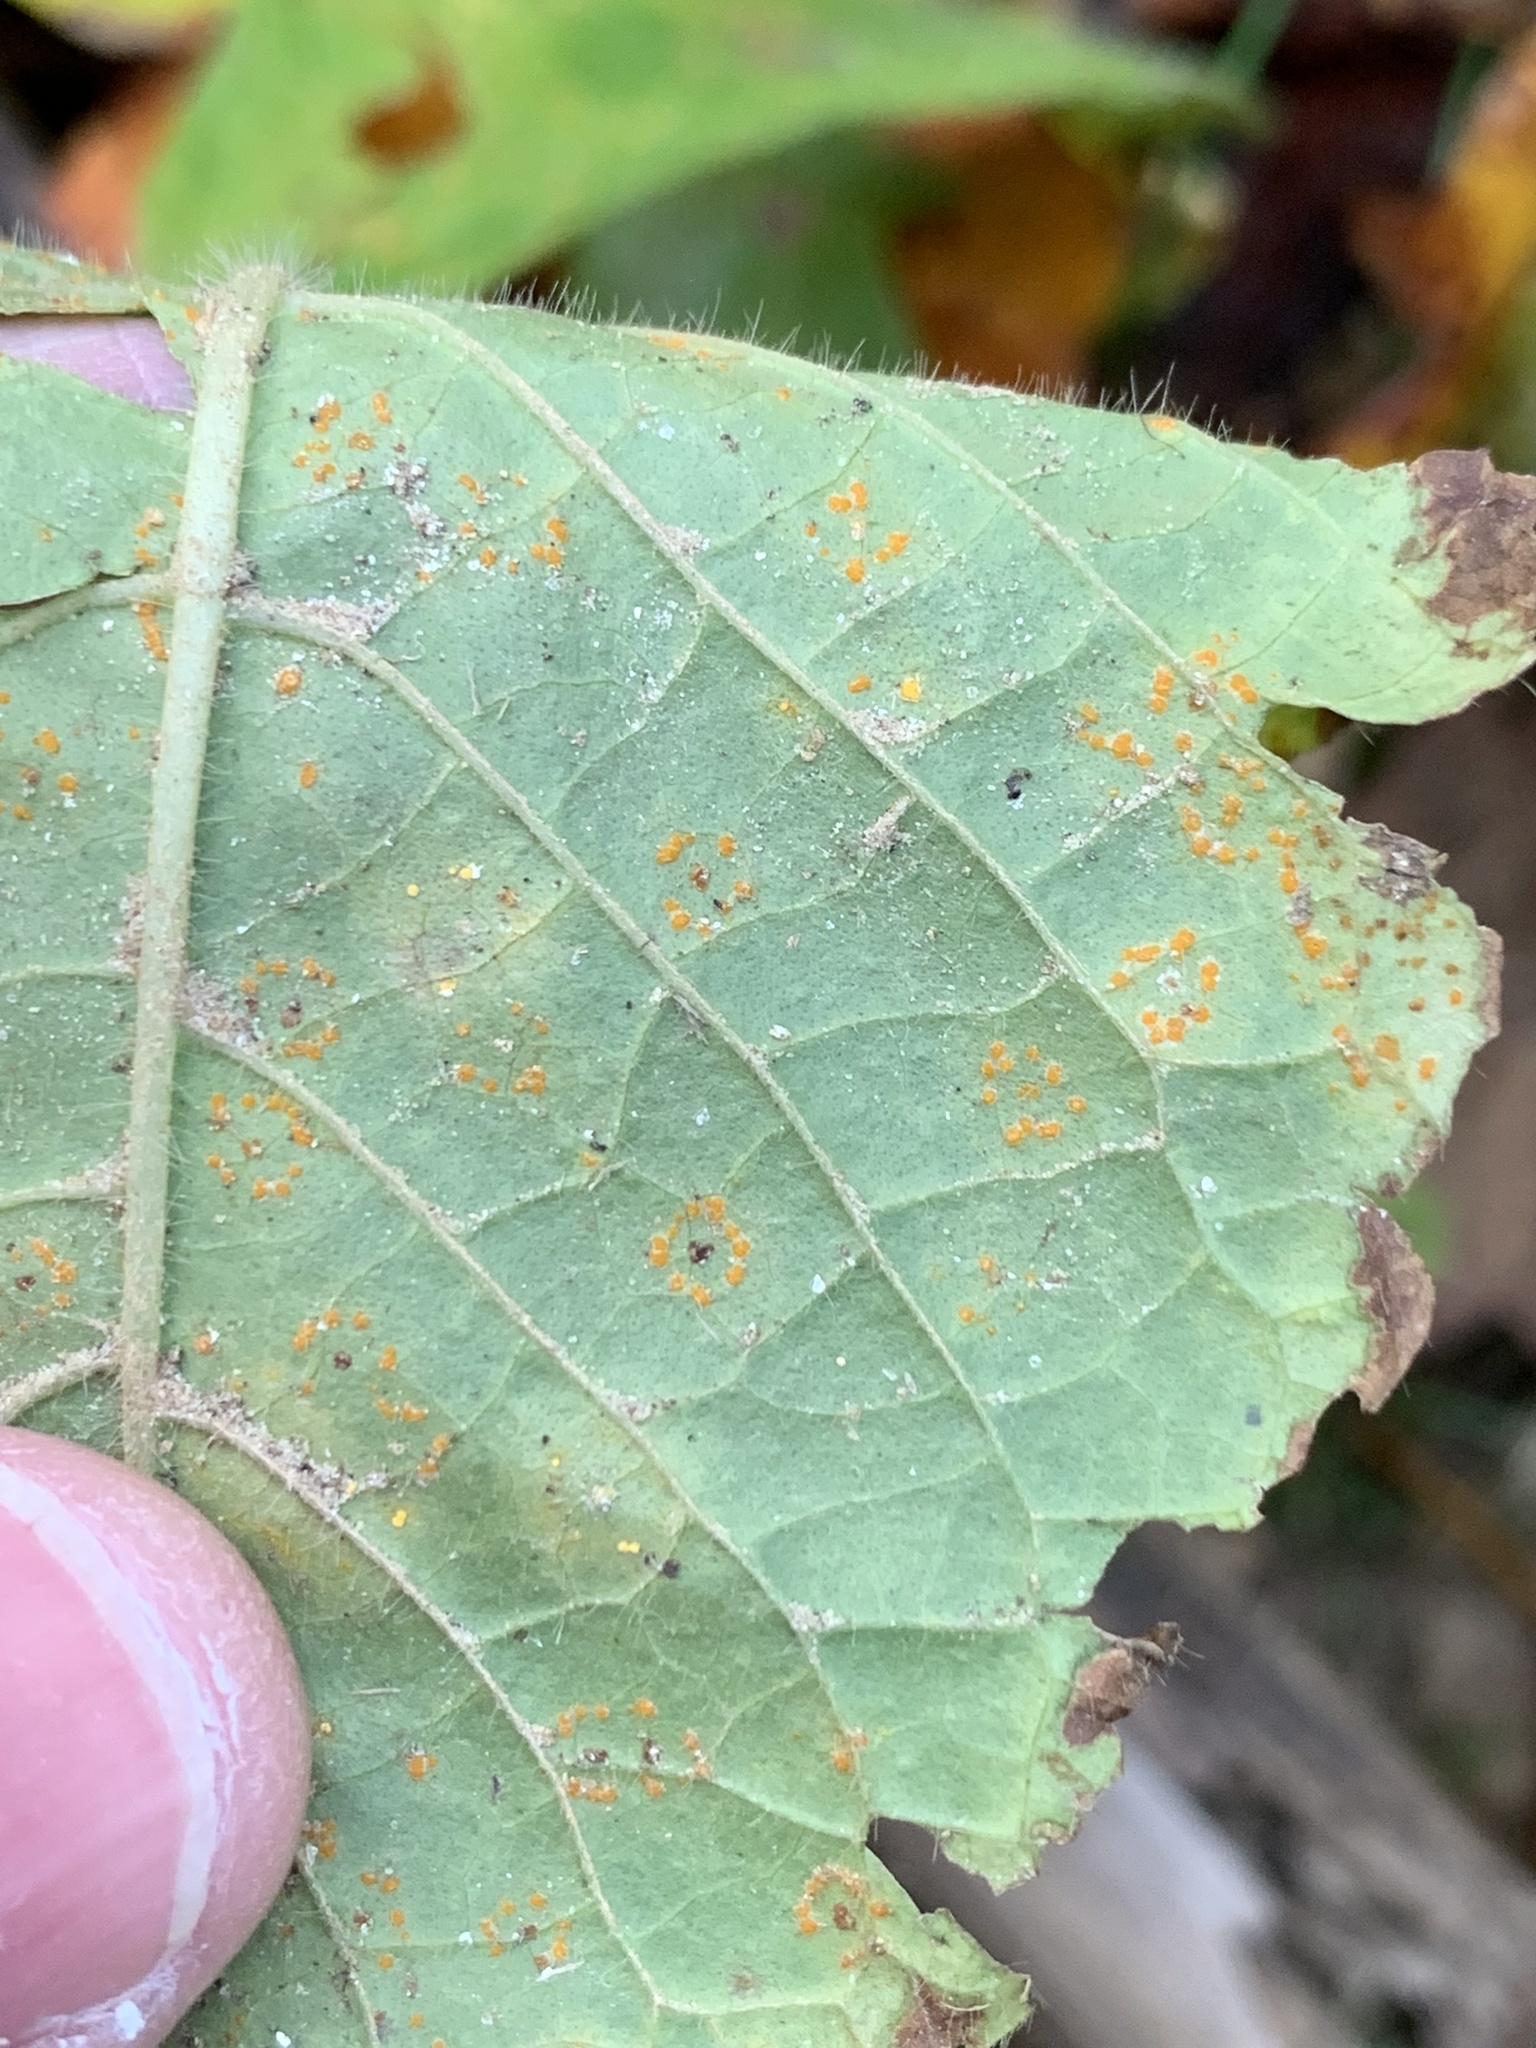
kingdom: Fungi
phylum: Basidiomycota
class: Pucciniomycetes
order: Pucciniales
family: Coleosporiaceae
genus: Coleosporium
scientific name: Coleosporium elephantopodis
